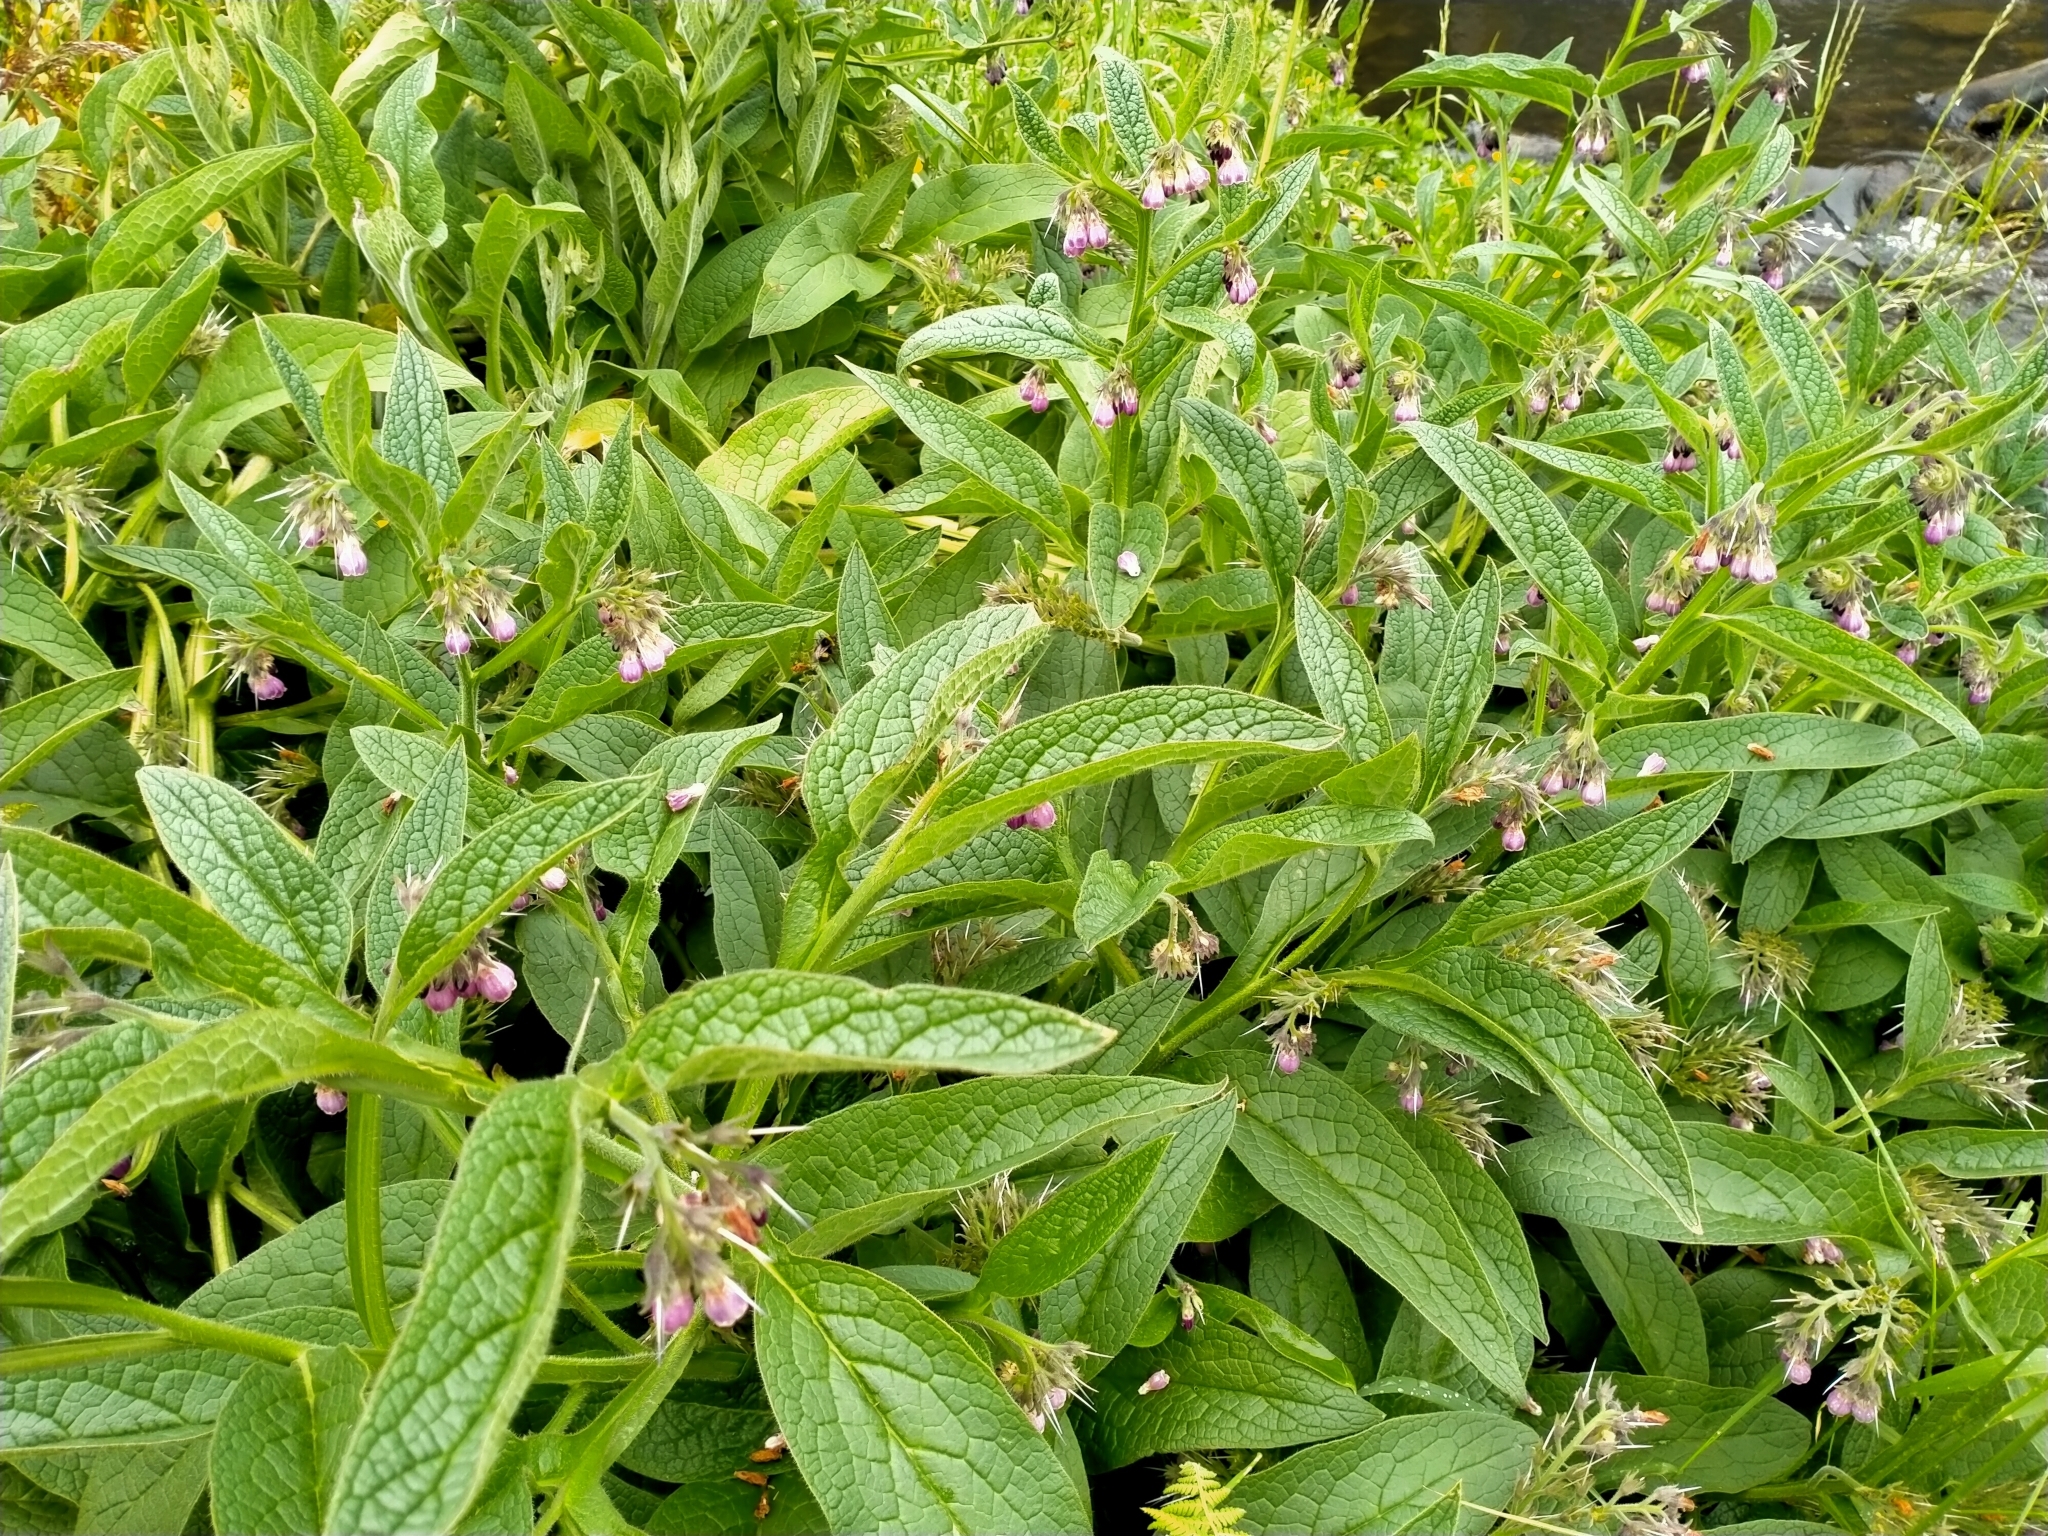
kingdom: Plantae
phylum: Tracheophyta
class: Magnoliopsida
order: Boraginales
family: Boraginaceae
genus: Symphytum
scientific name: Symphytum uplandicum
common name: Russian comfrey
